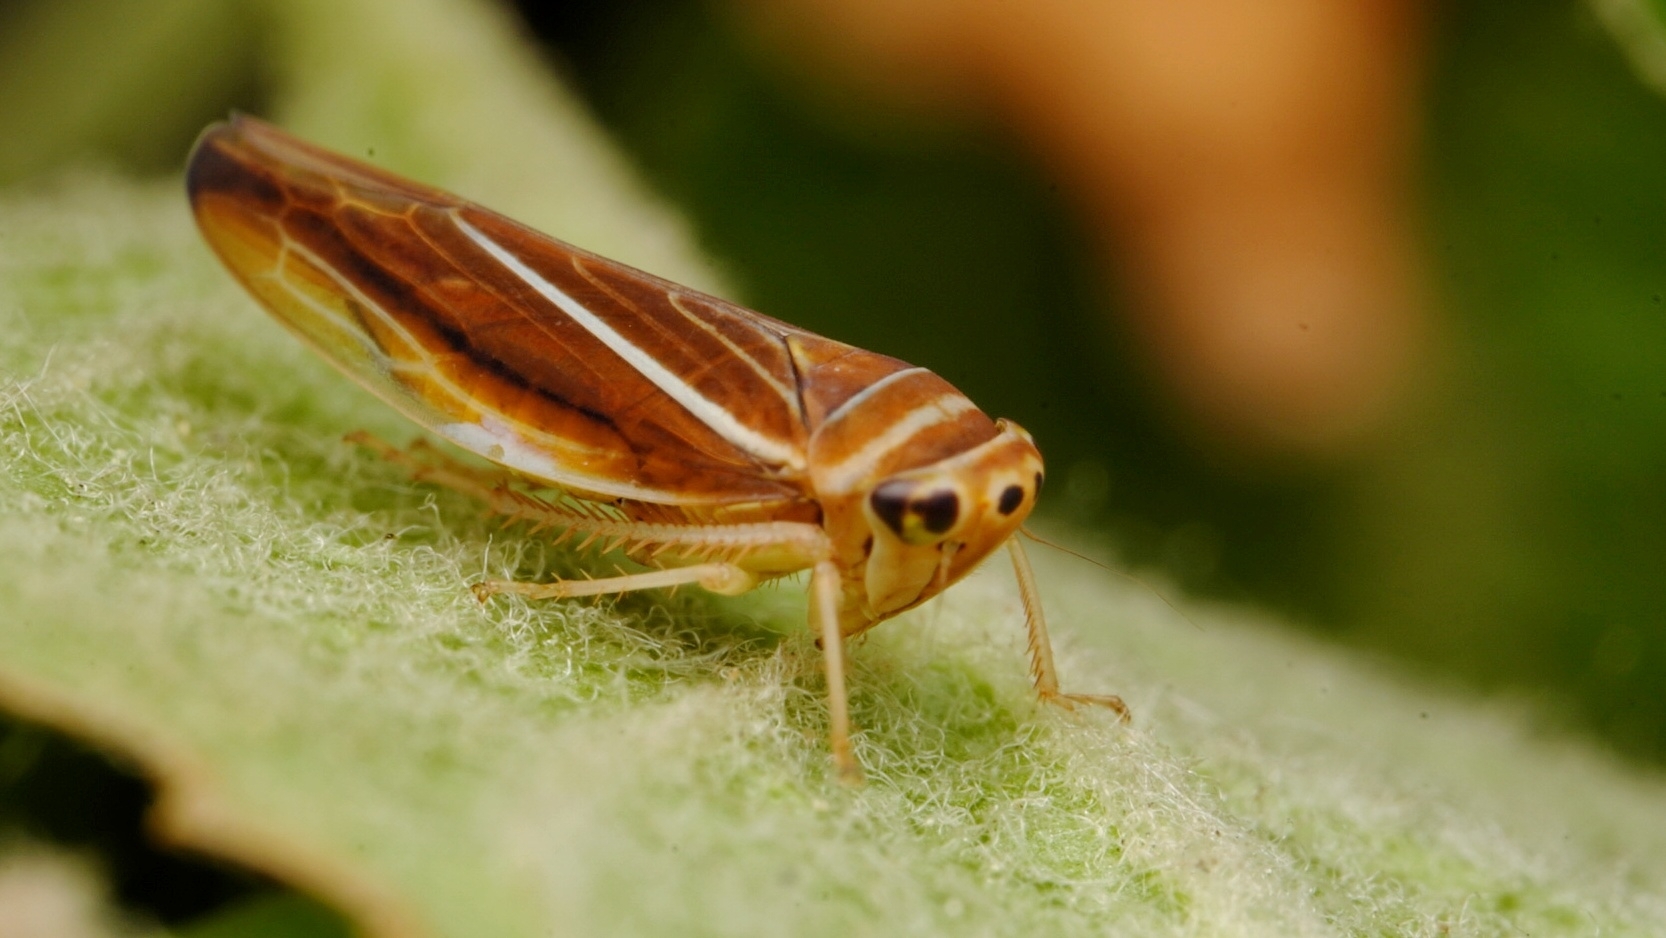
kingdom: Animalia
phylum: Arthropoda
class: Insecta
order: Hemiptera
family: Cicadellidae
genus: Idiodonus
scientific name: Idiodonus kennicotti
